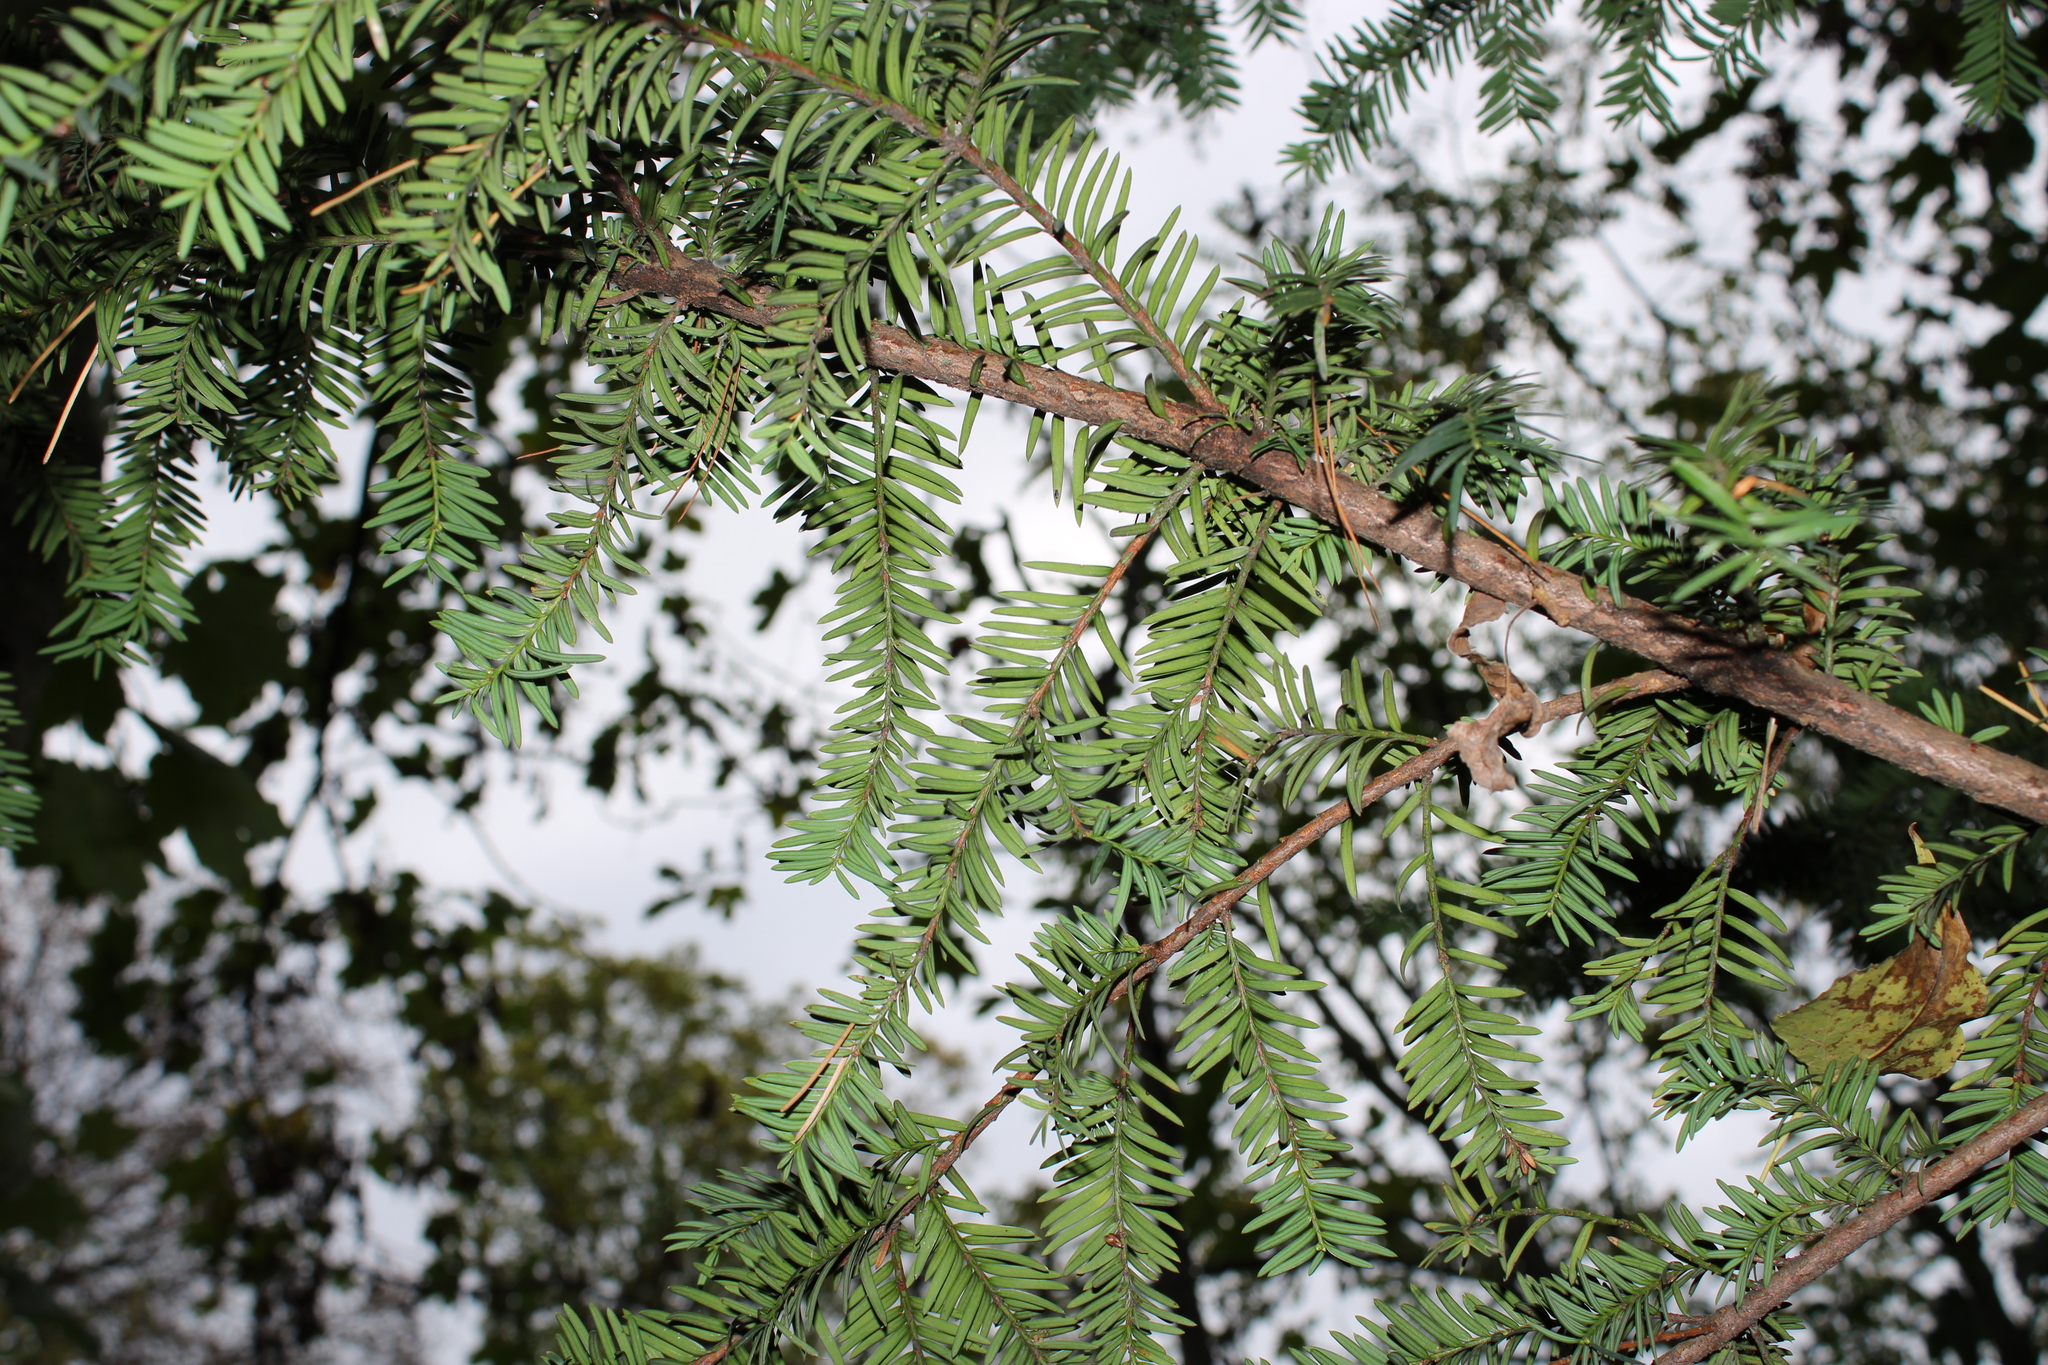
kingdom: Plantae
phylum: Tracheophyta
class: Pinopsida
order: Pinales
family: Taxaceae
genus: Taxus
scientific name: Taxus baccata
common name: Yew
